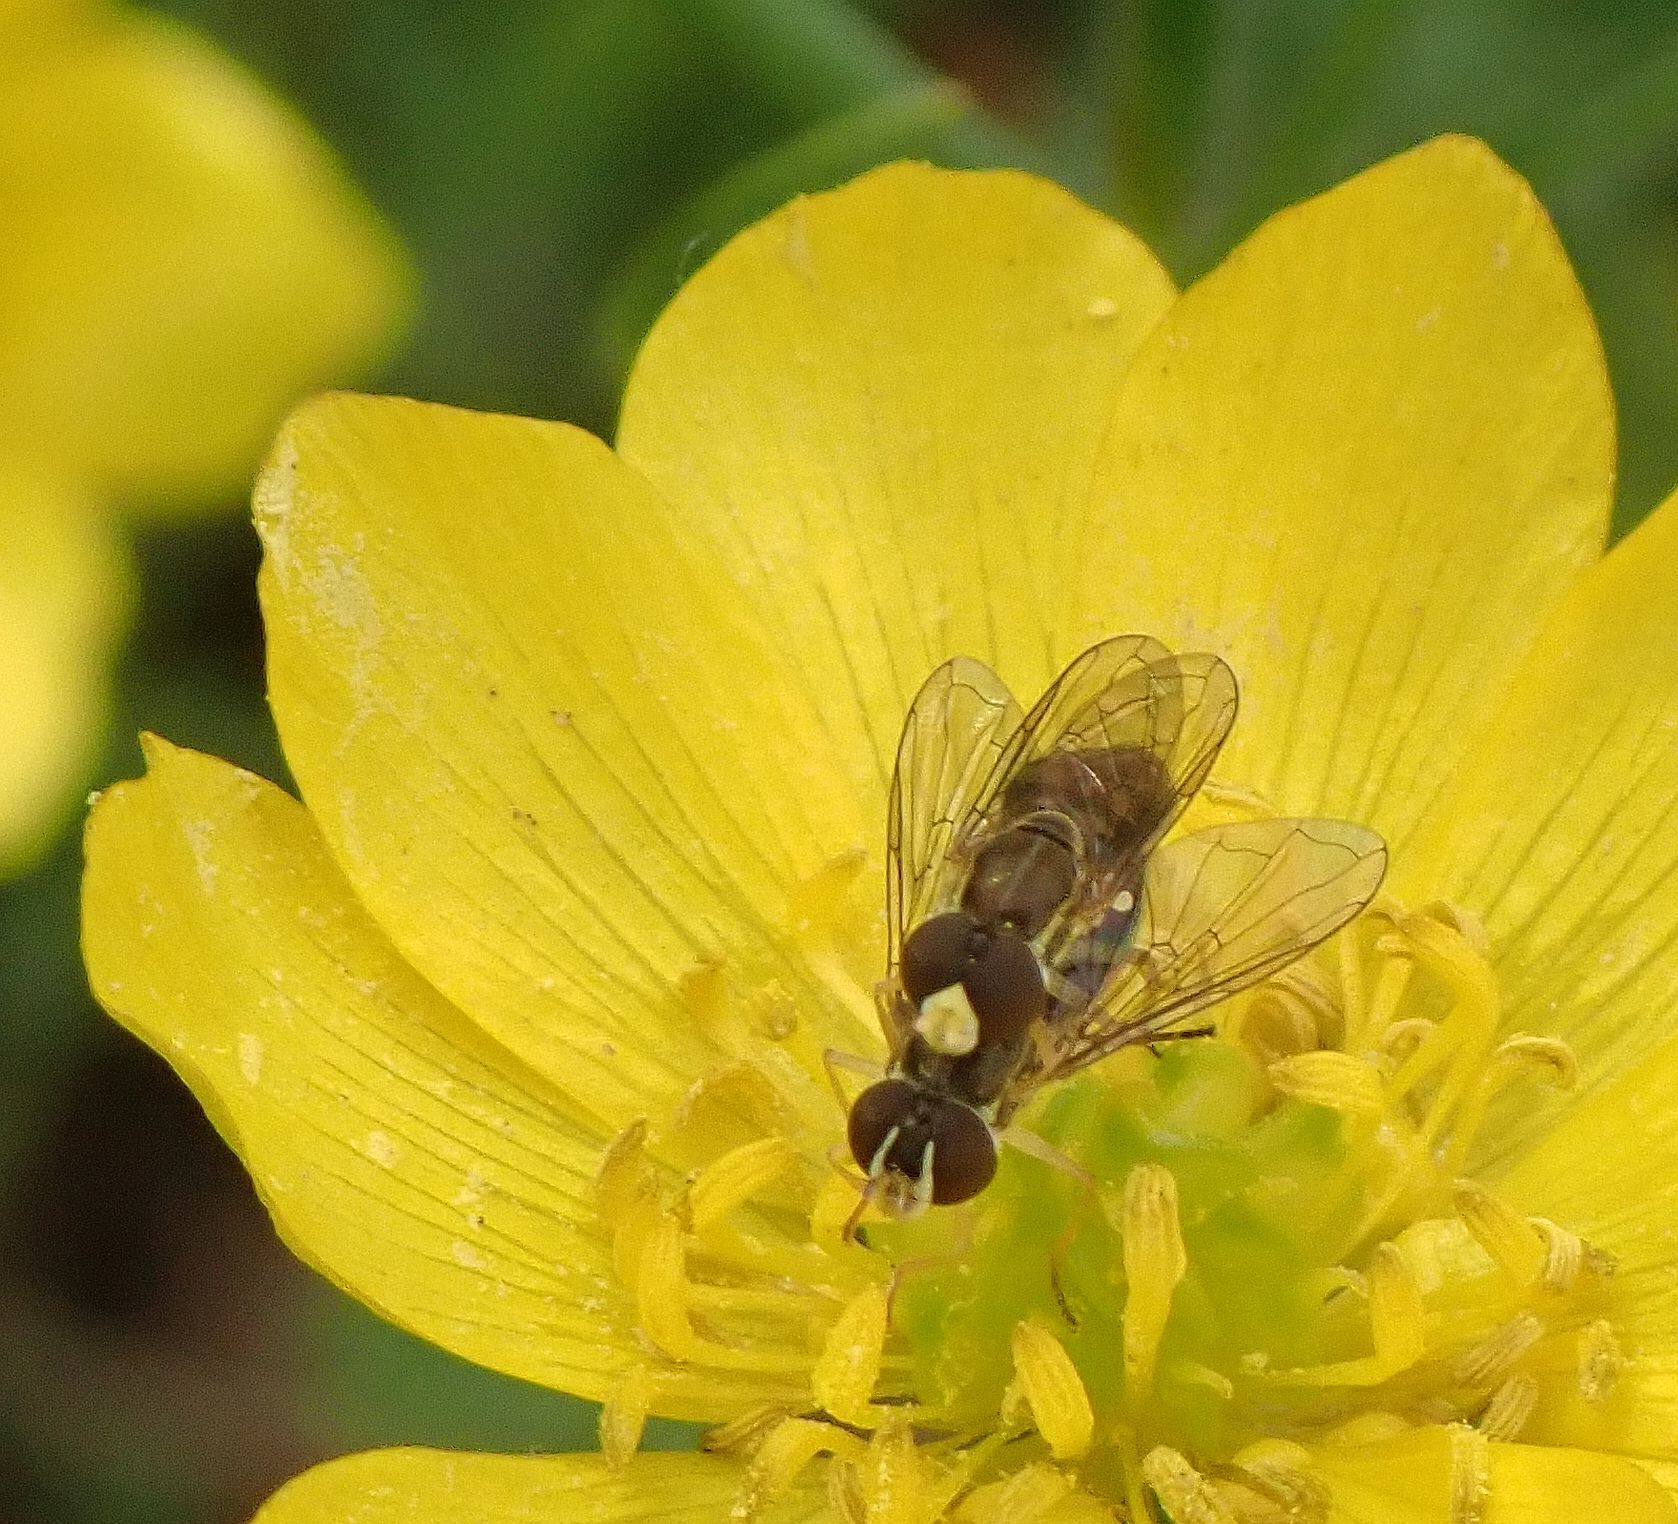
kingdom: Animalia
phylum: Arthropoda
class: Insecta
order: Diptera
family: Syrphidae
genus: Toxomerus
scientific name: Toxomerus marginatus
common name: Syrphid fly
